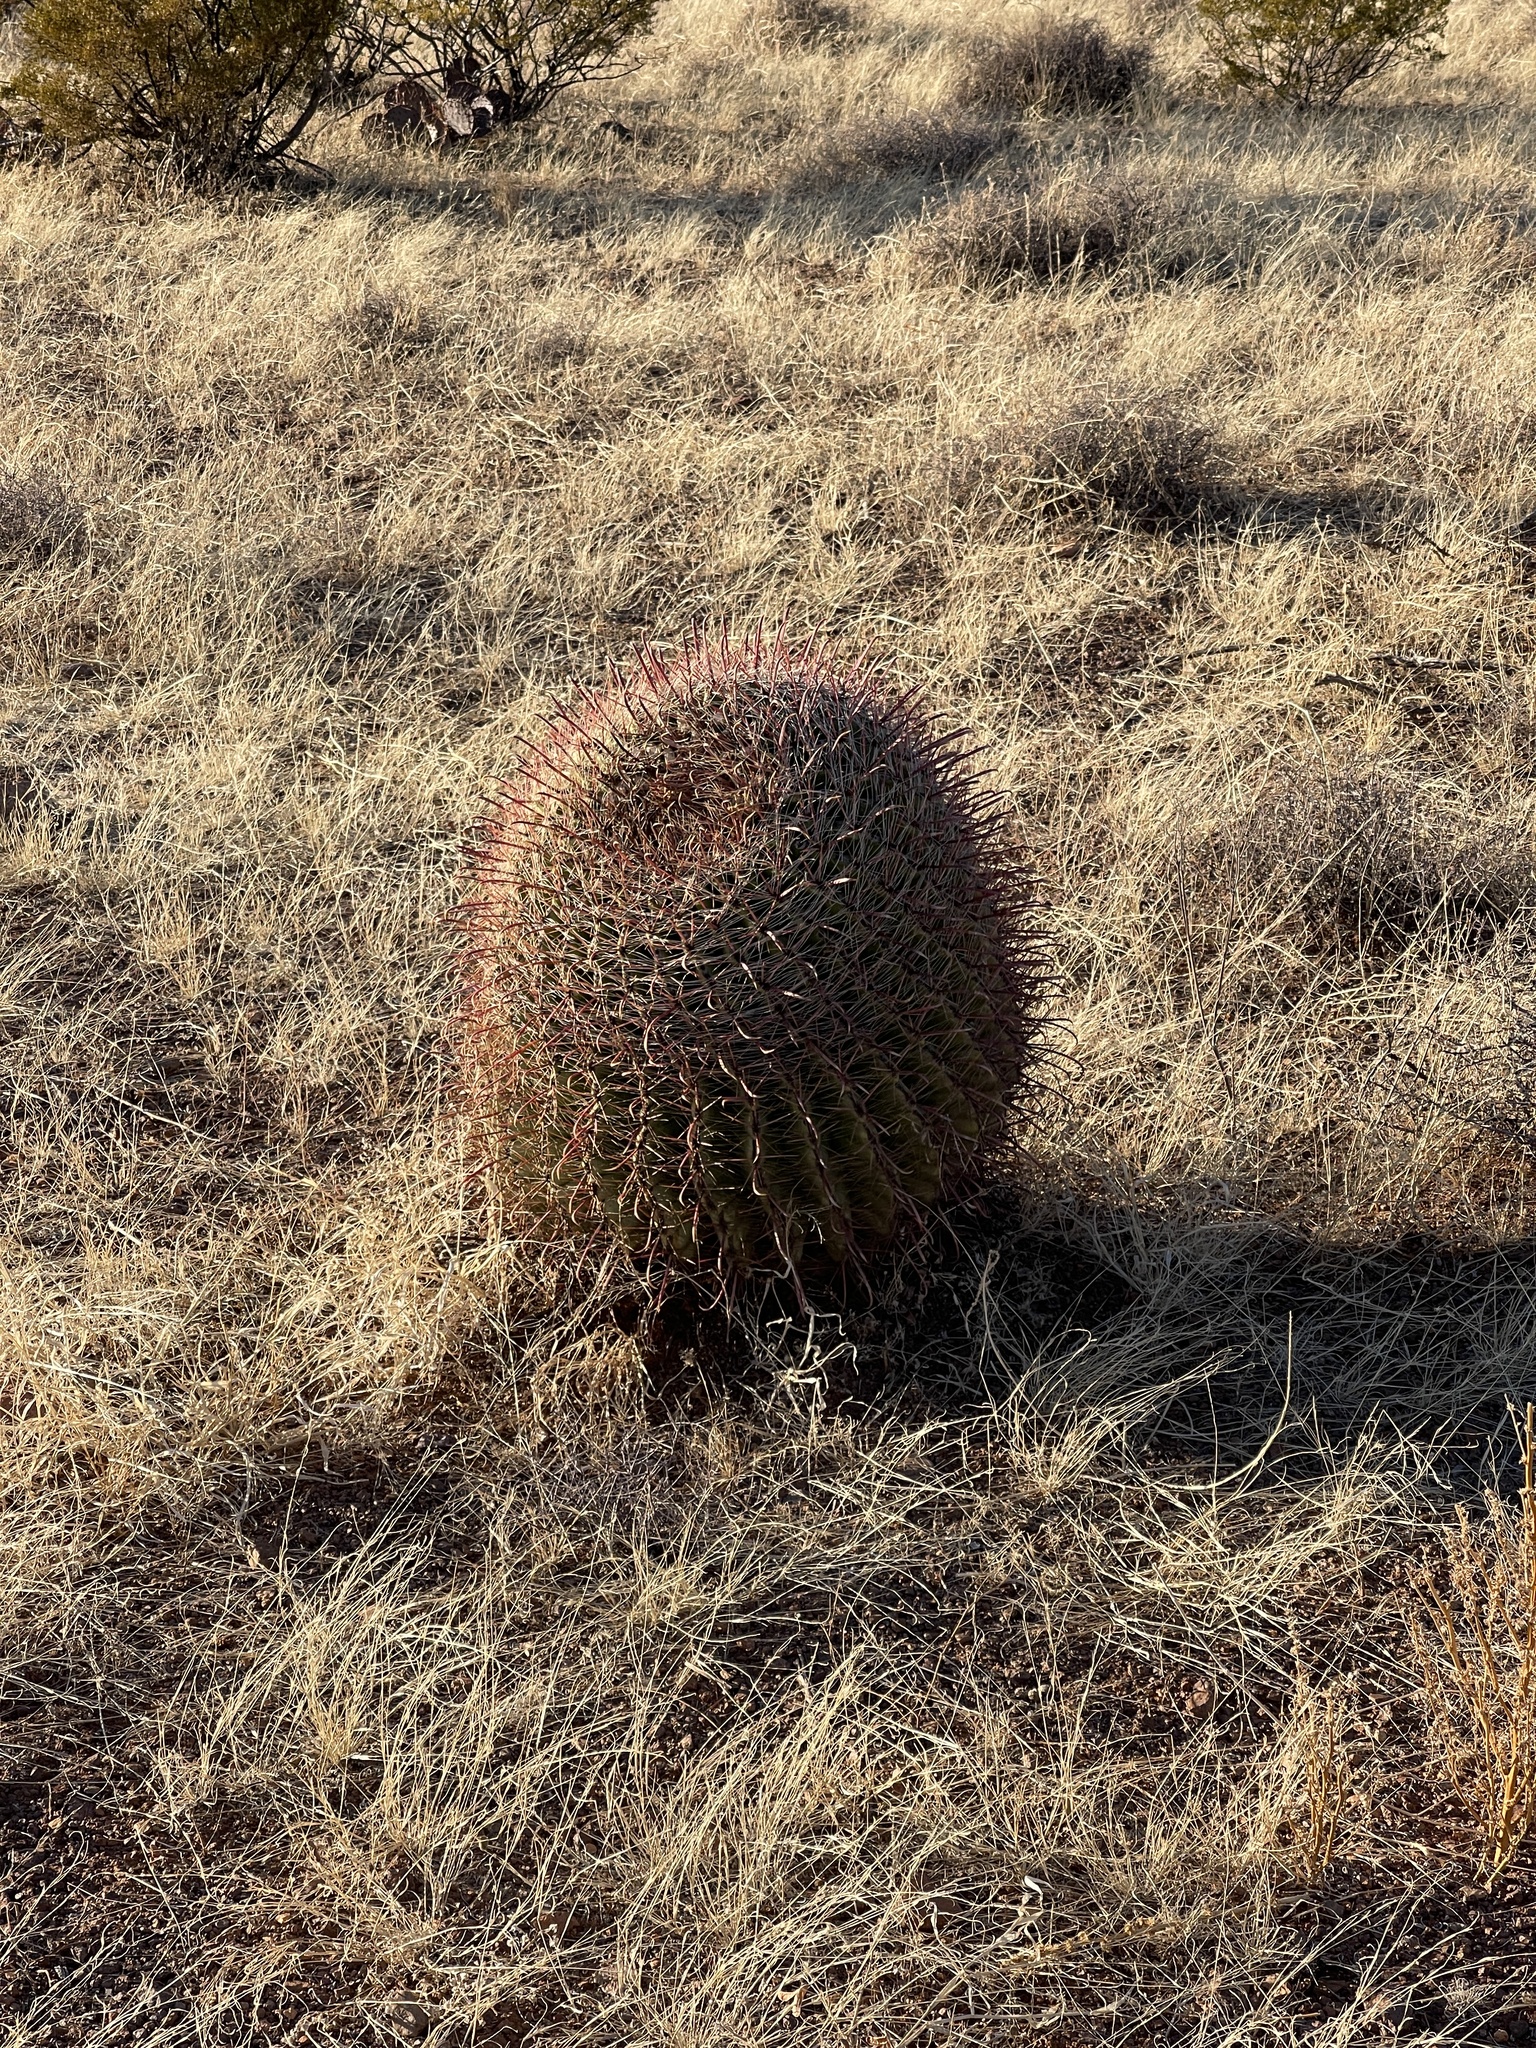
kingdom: Plantae
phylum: Tracheophyta
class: Magnoliopsida
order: Caryophyllales
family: Cactaceae
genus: Ferocactus
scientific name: Ferocactus wislizeni
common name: Candy barrel cactus
